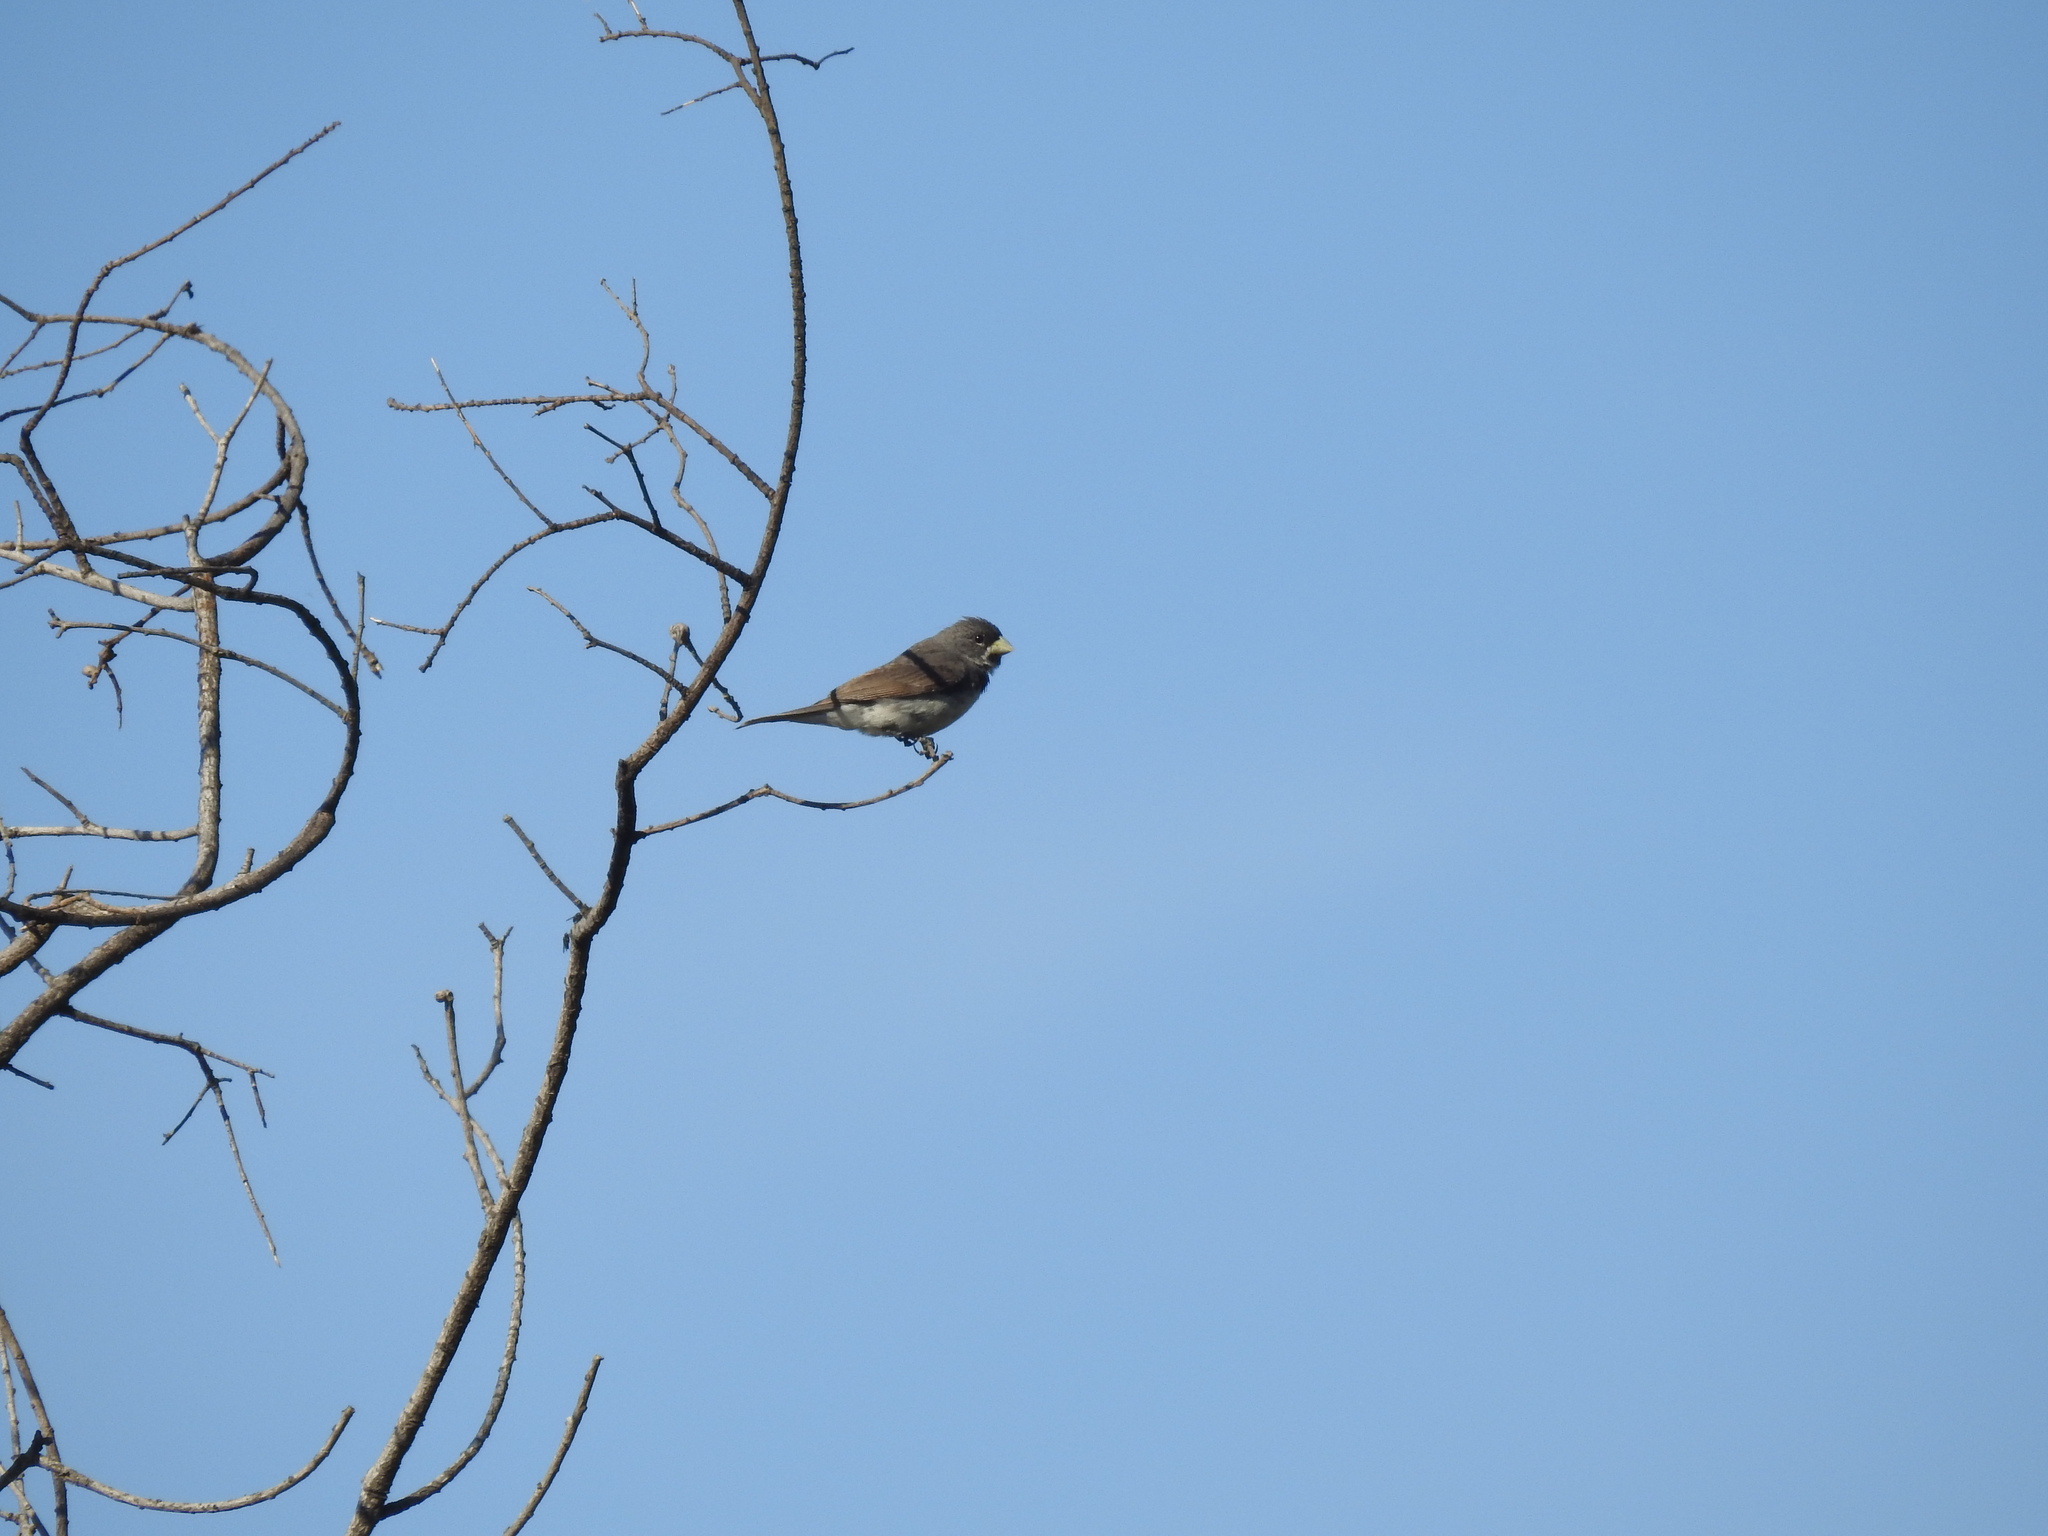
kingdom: Animalia
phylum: Chordata
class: Aves
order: Passeriformes
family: Thraupidae
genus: Sporophila
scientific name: Sporophila caerulescens
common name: Double-collared seedeater
